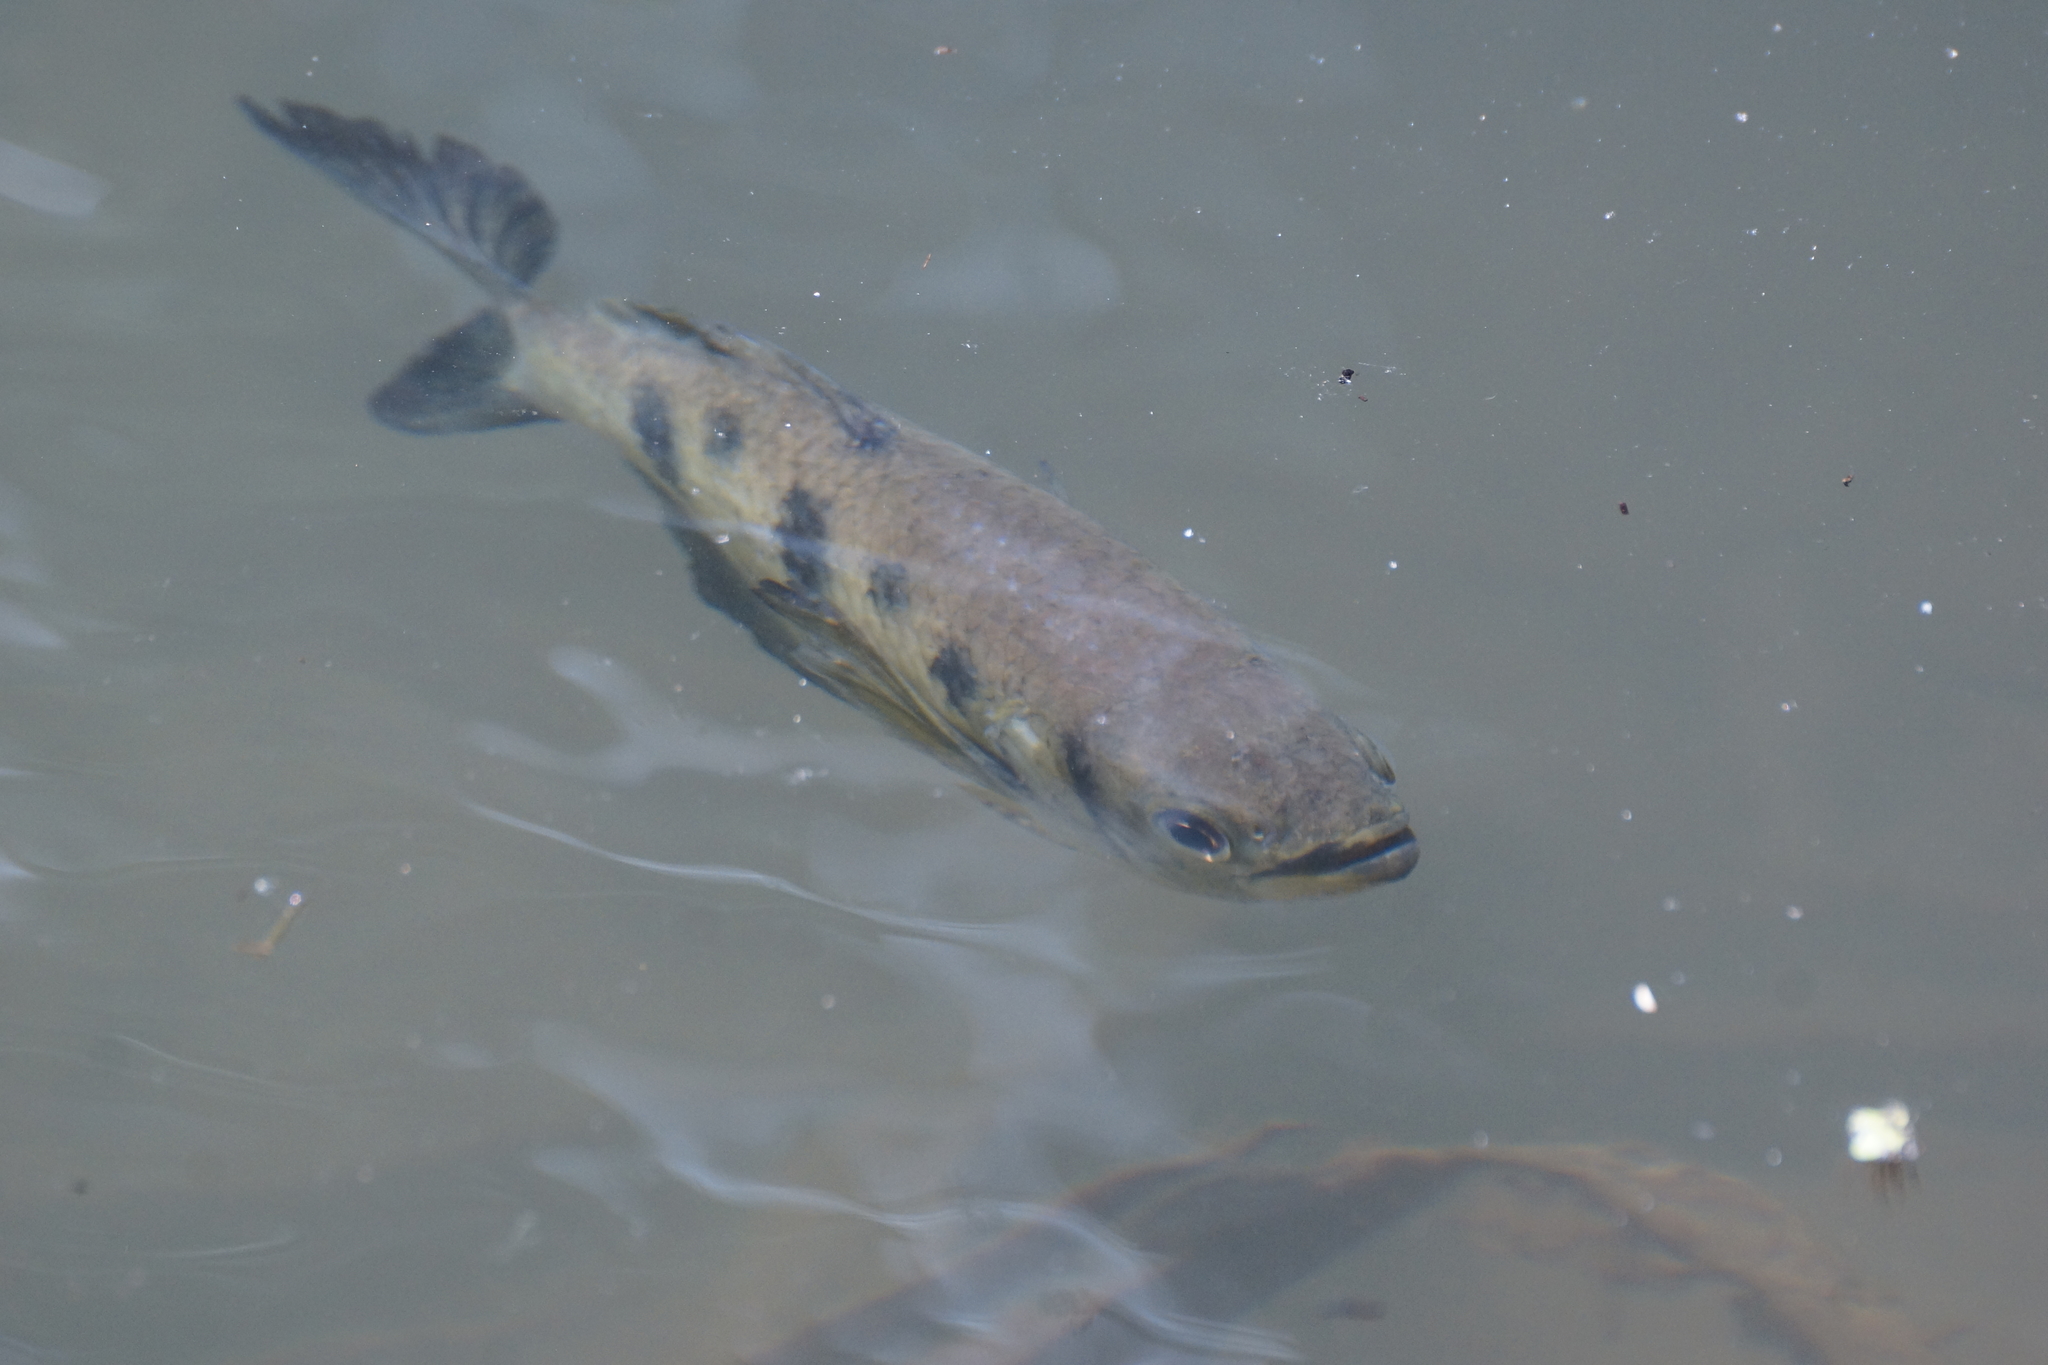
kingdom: Animalia
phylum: Chordata
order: Perciformes
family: Toxotidae
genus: Toxotes
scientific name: Toxotes chatareus
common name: Spotted archerfish
